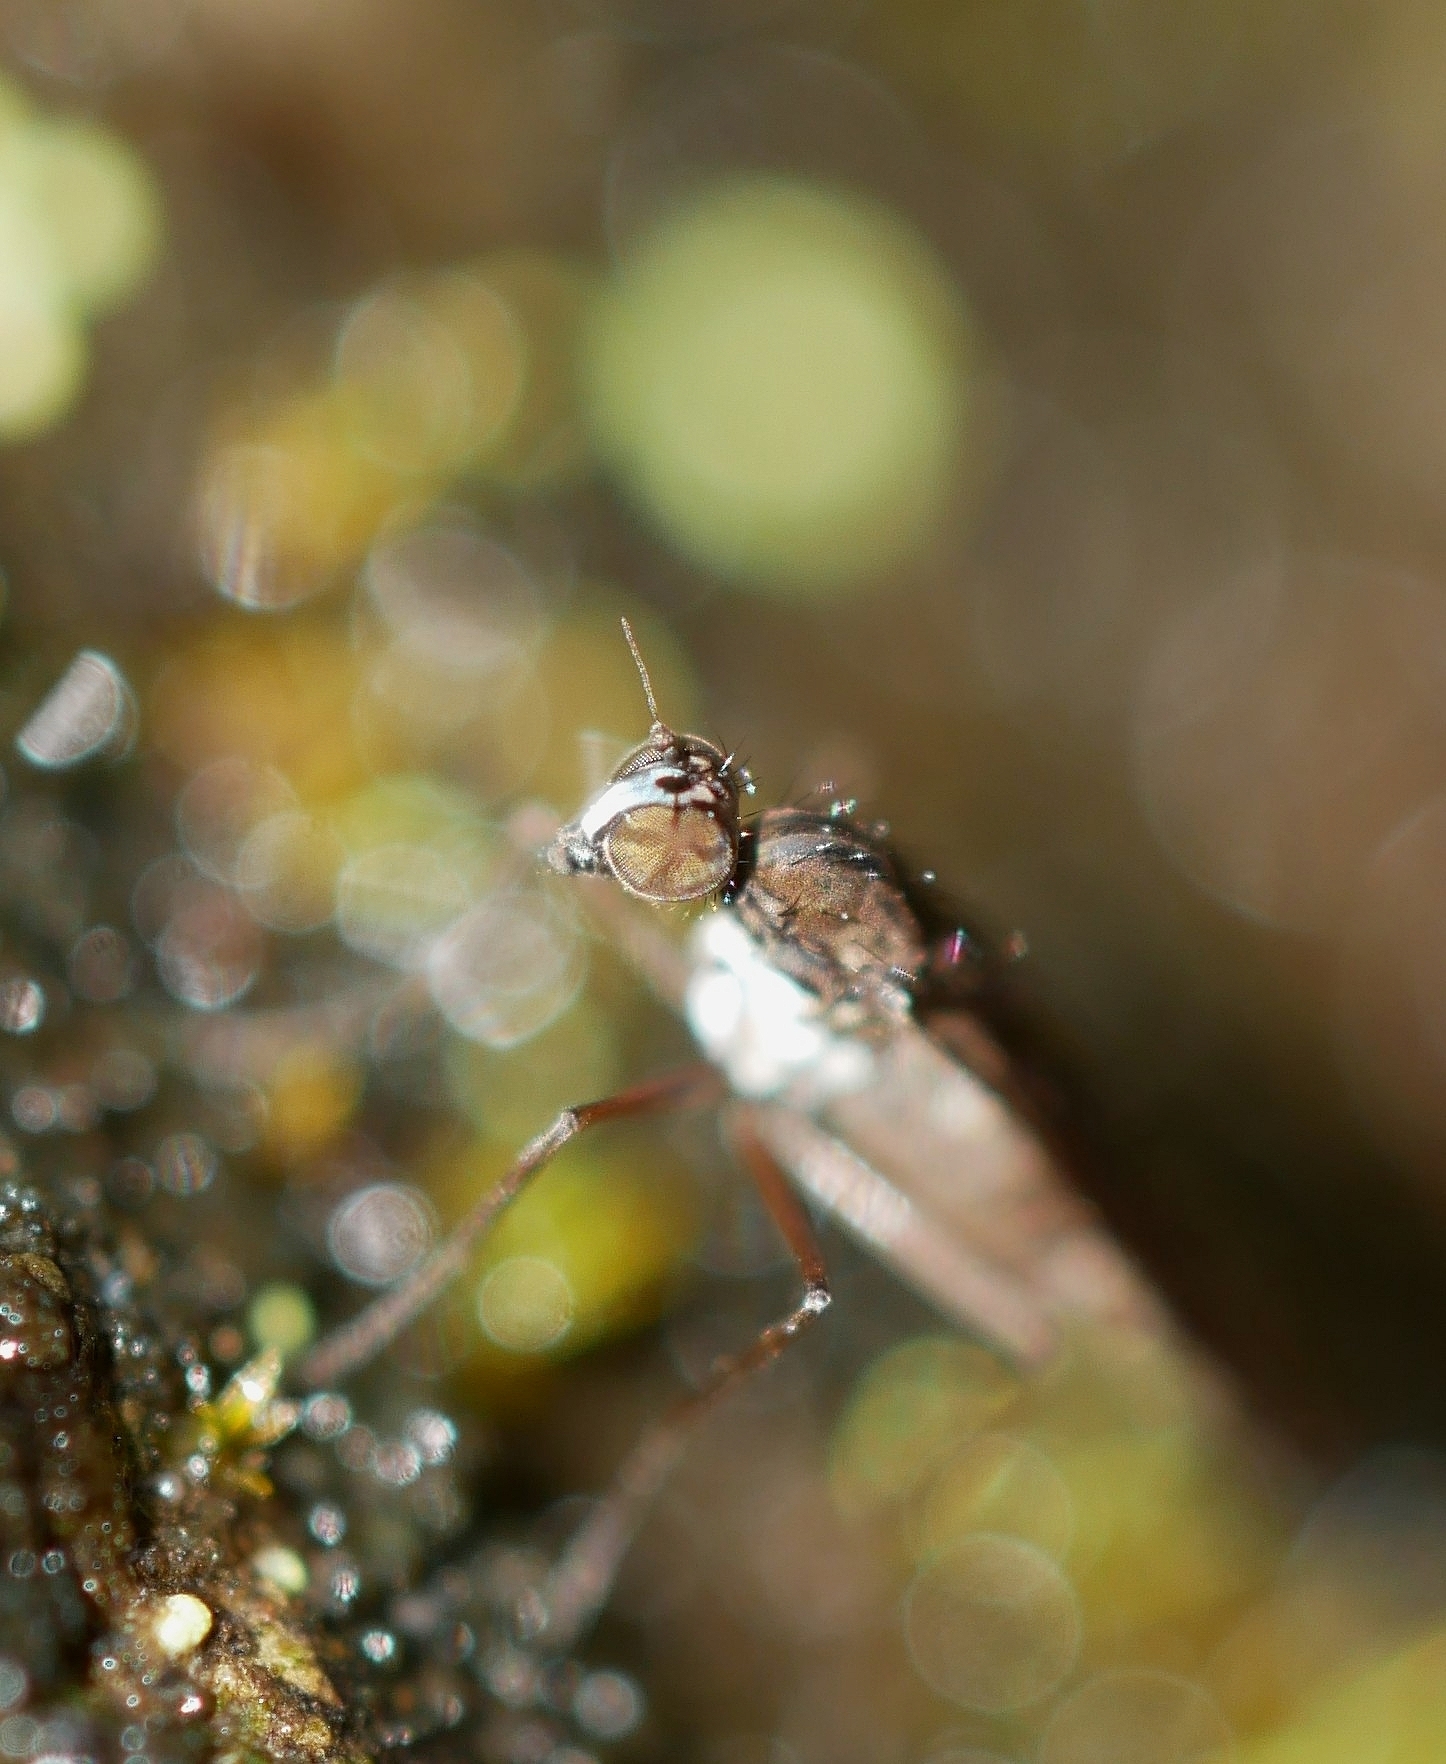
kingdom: Animalia
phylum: Arthropoda
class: Insecta
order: Diptera
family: Empididae
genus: Clinocera
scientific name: Clinocera lineata
